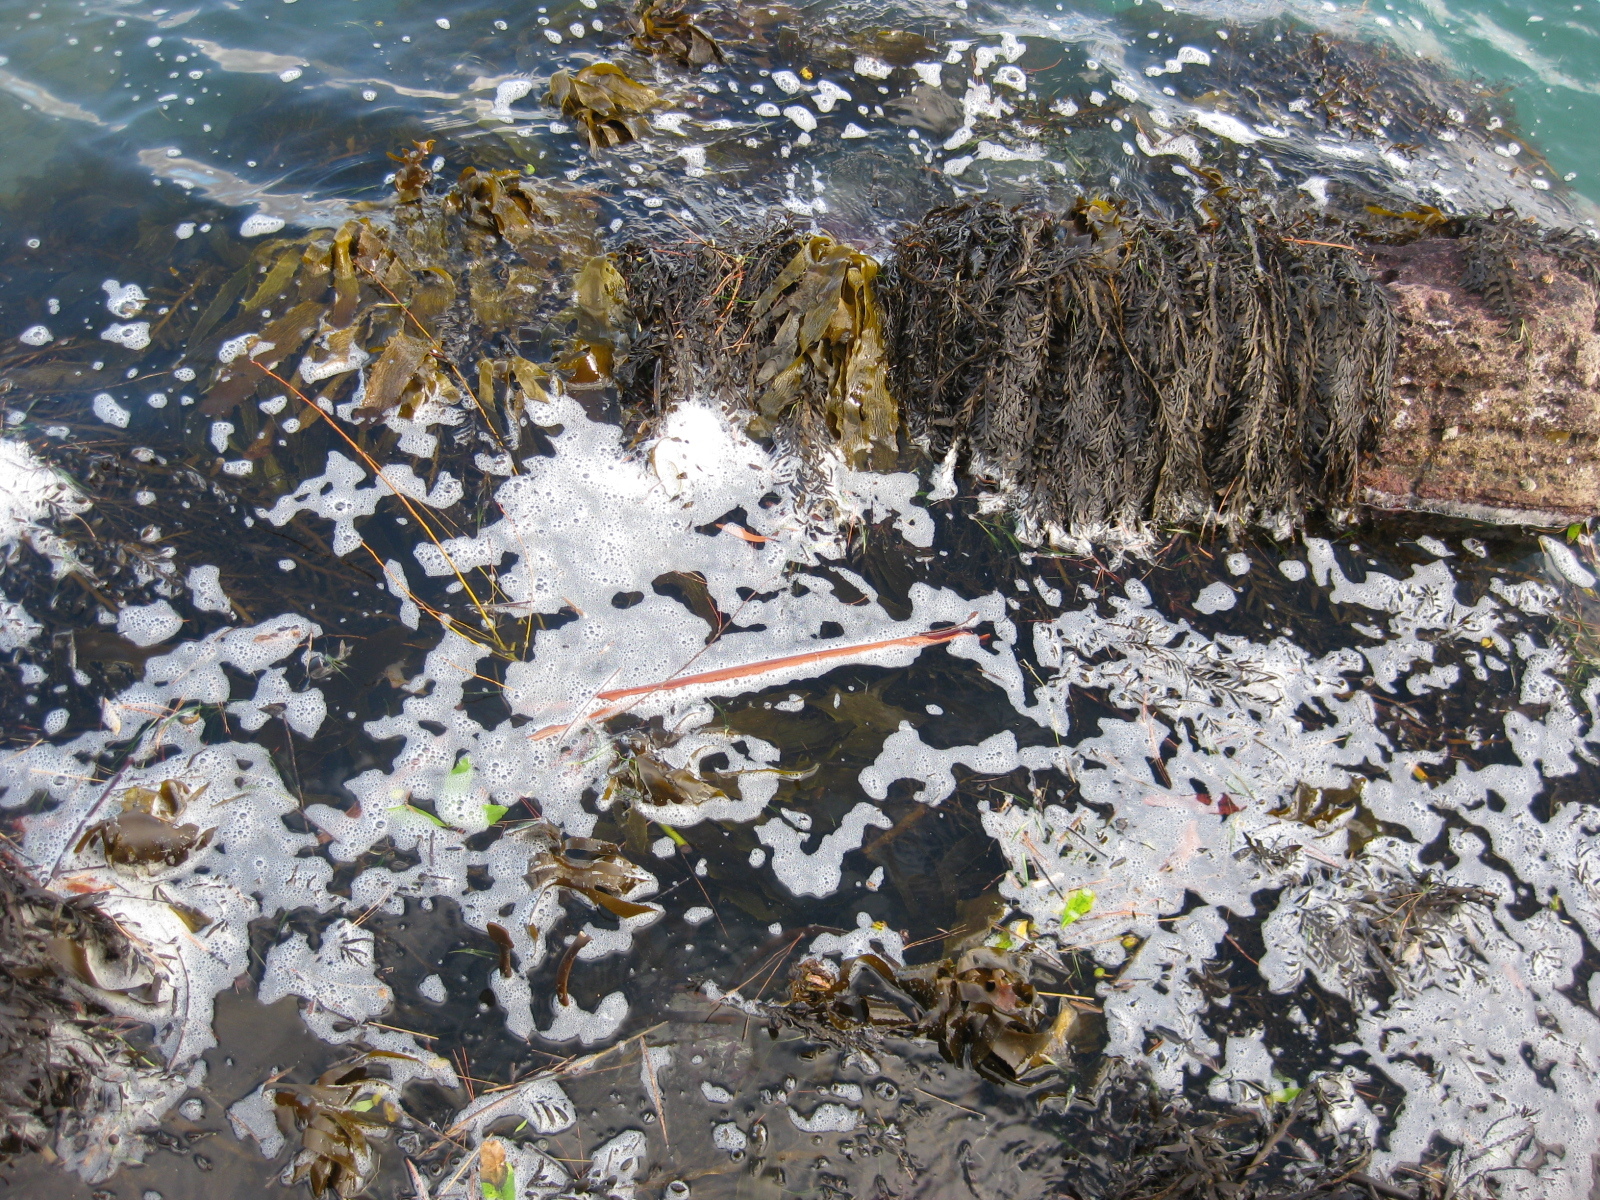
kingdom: Chromista
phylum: Ochrophyta
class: Phaeophyceae
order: Laminariales
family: Lessoniaceae
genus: Ecklonia
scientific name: Ecklonia radiata
